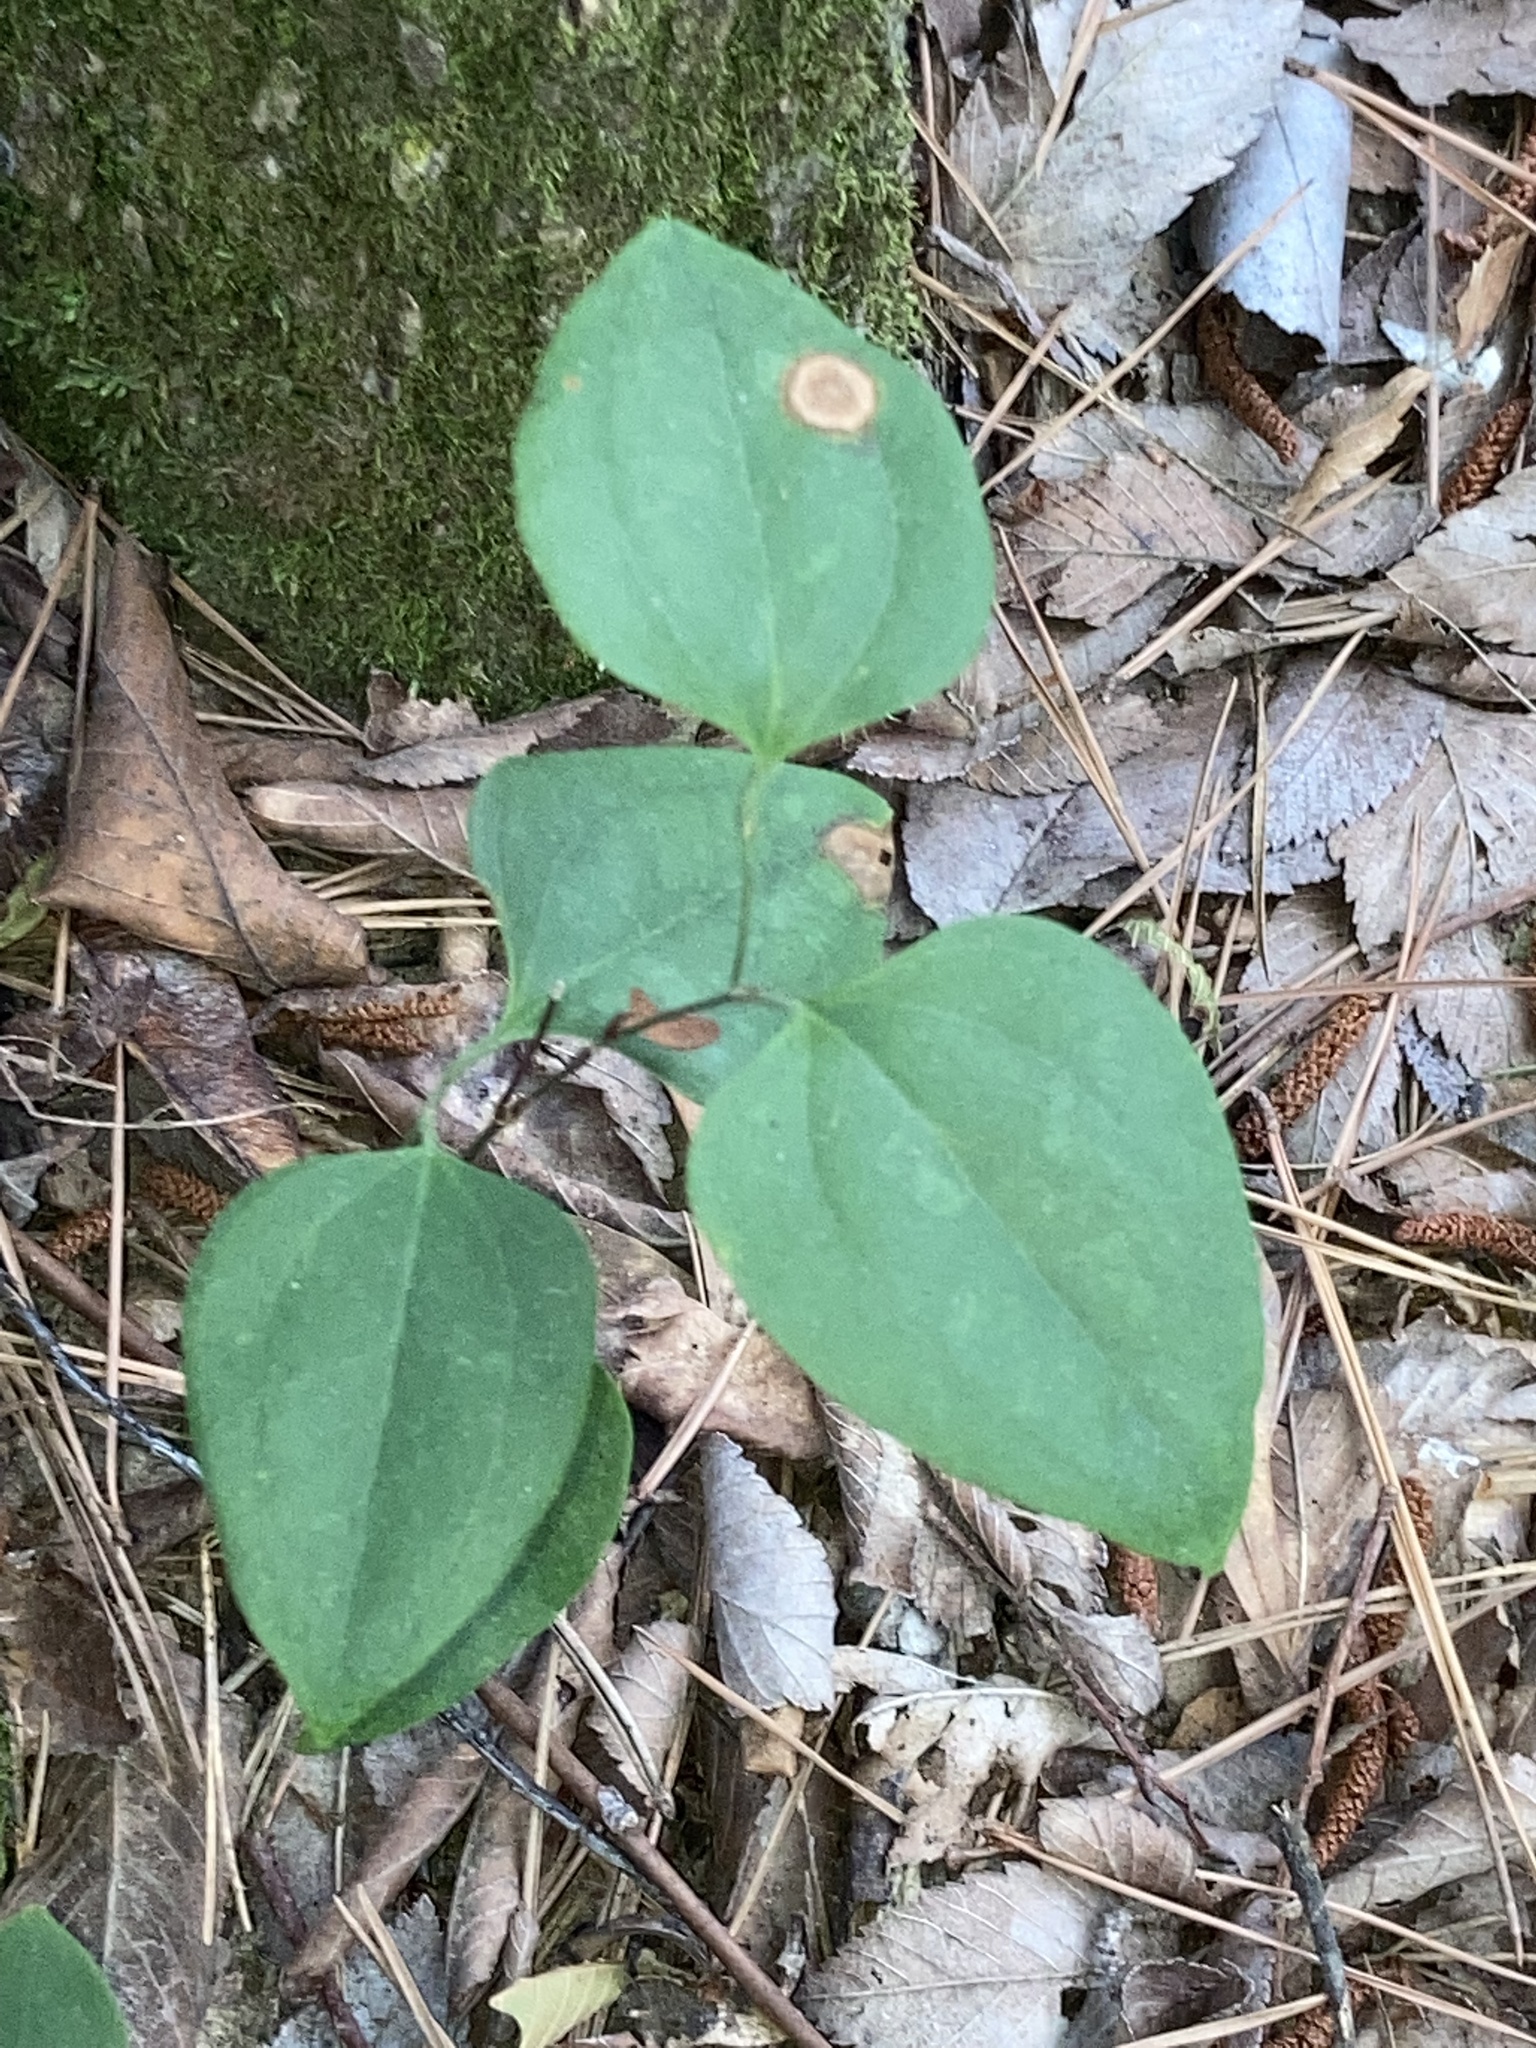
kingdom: Plantae
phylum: Tracheophyta
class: Liliopsida
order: Liliales
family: Smilacaceae
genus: Smilax
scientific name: Smilax rotundifolia
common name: Bullbriar
